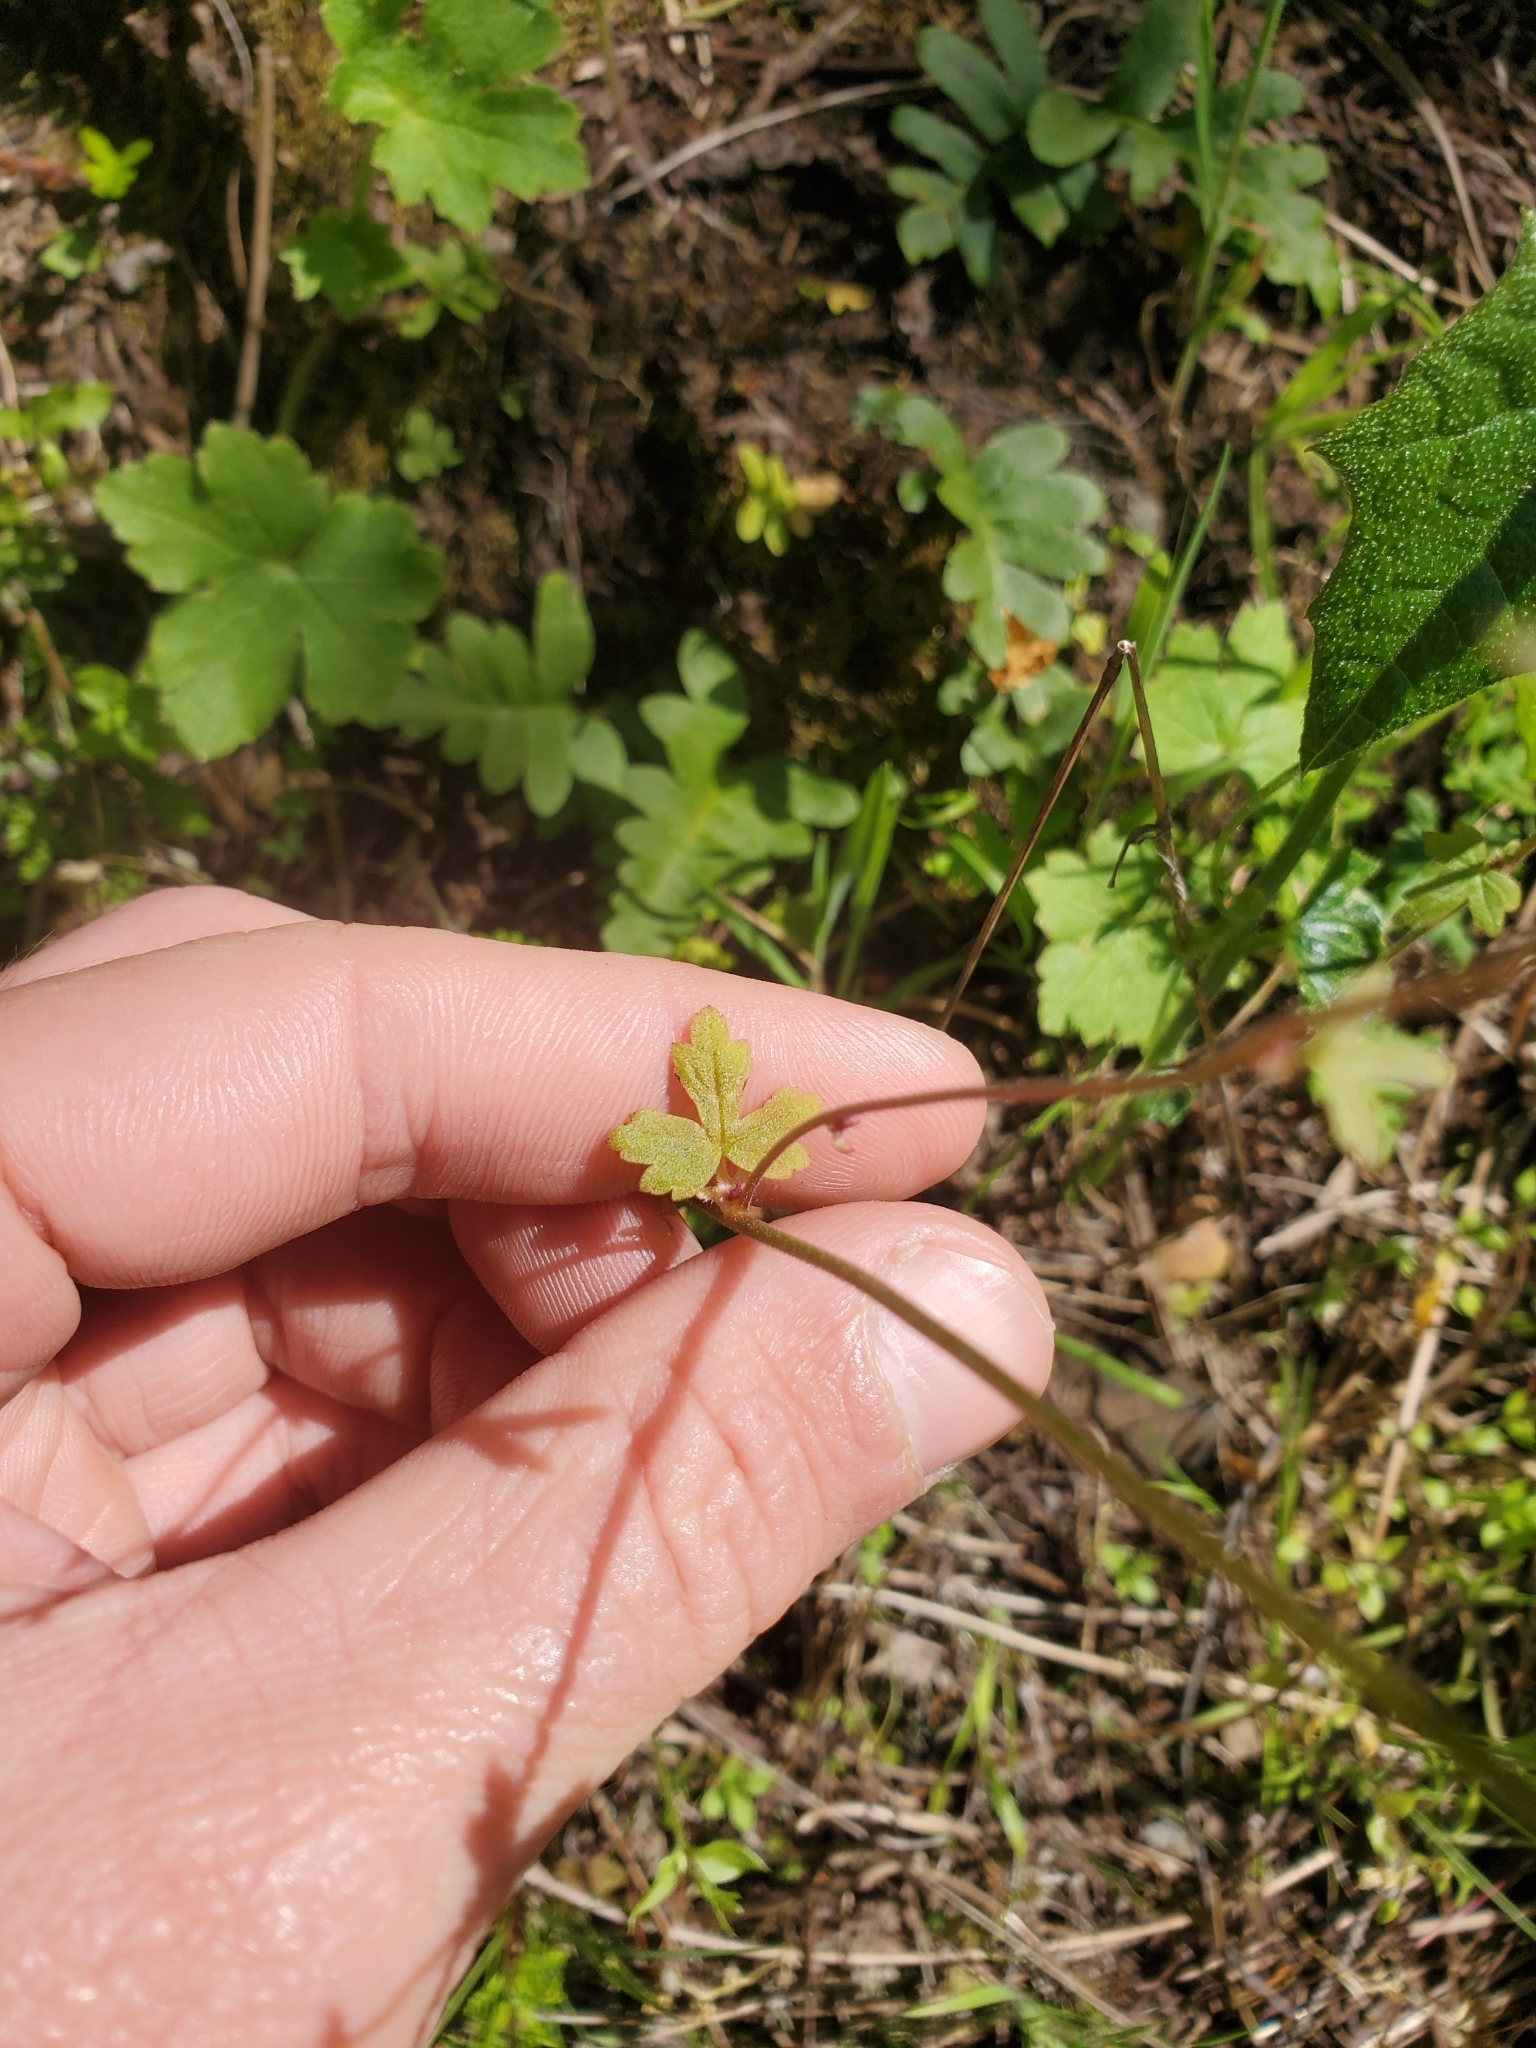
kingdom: Plantae
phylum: Tracheophyta
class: Magnoliopsida
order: Saxifragales
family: Saxifragaceae
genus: Lithophragma
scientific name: Lithophragma heterophyllum
